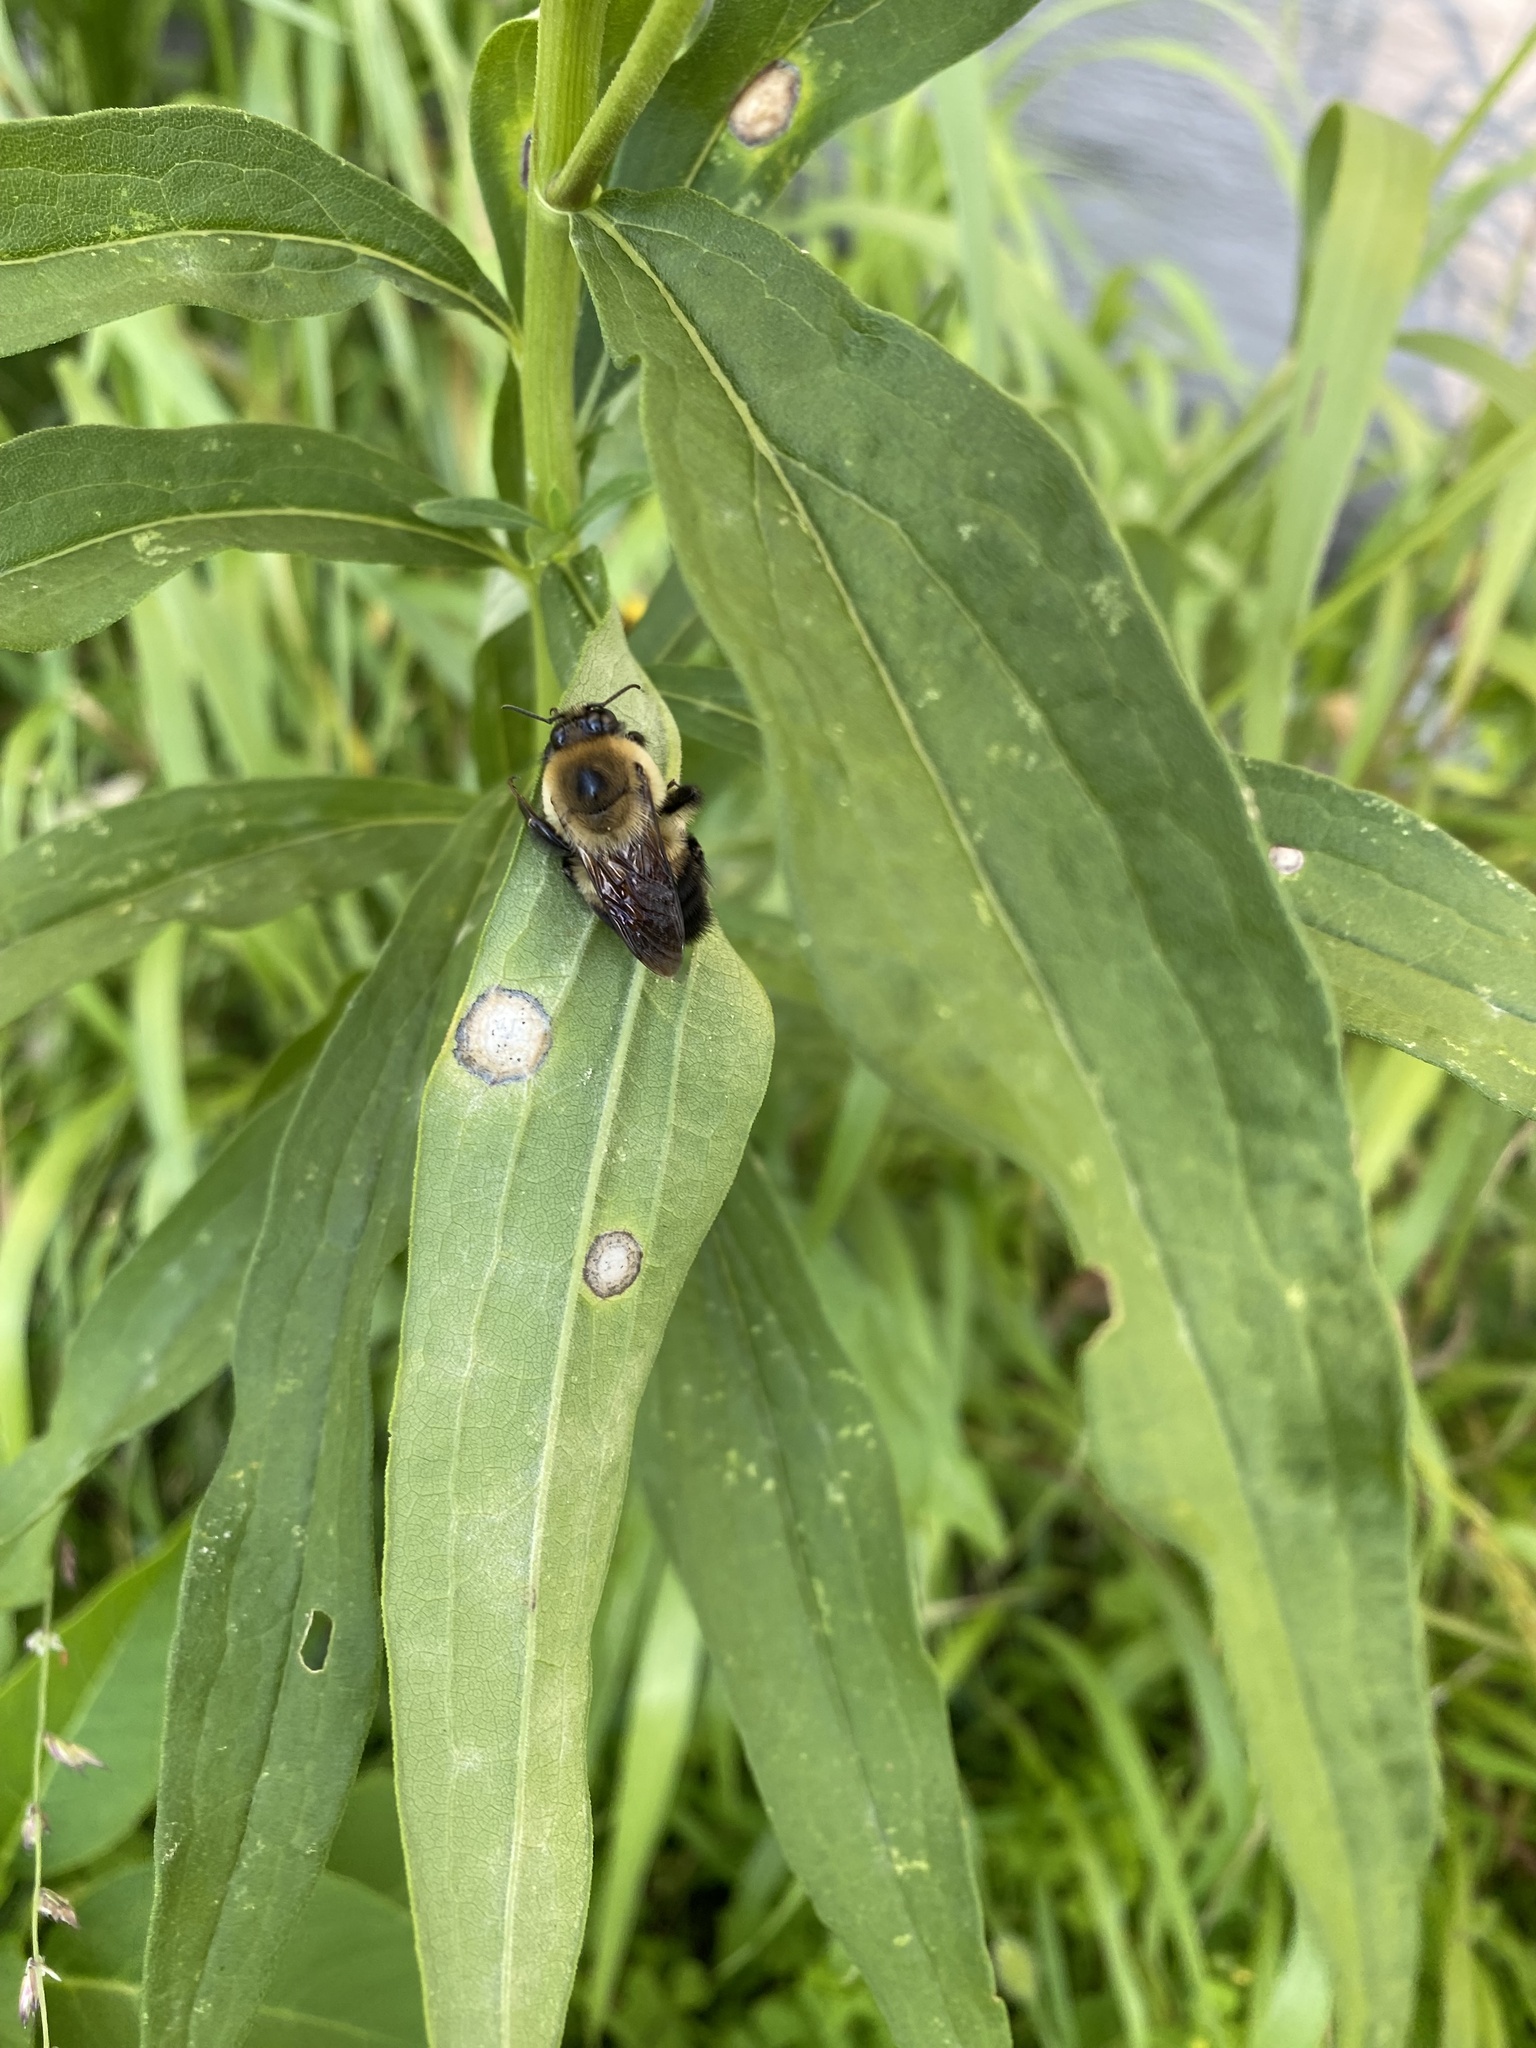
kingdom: Animalia
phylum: Arthropoda
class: Insecta
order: Hymenoptera
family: Apidae
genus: Bombus
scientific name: Bombus griseocollis
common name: Brown-belted bumble bee
